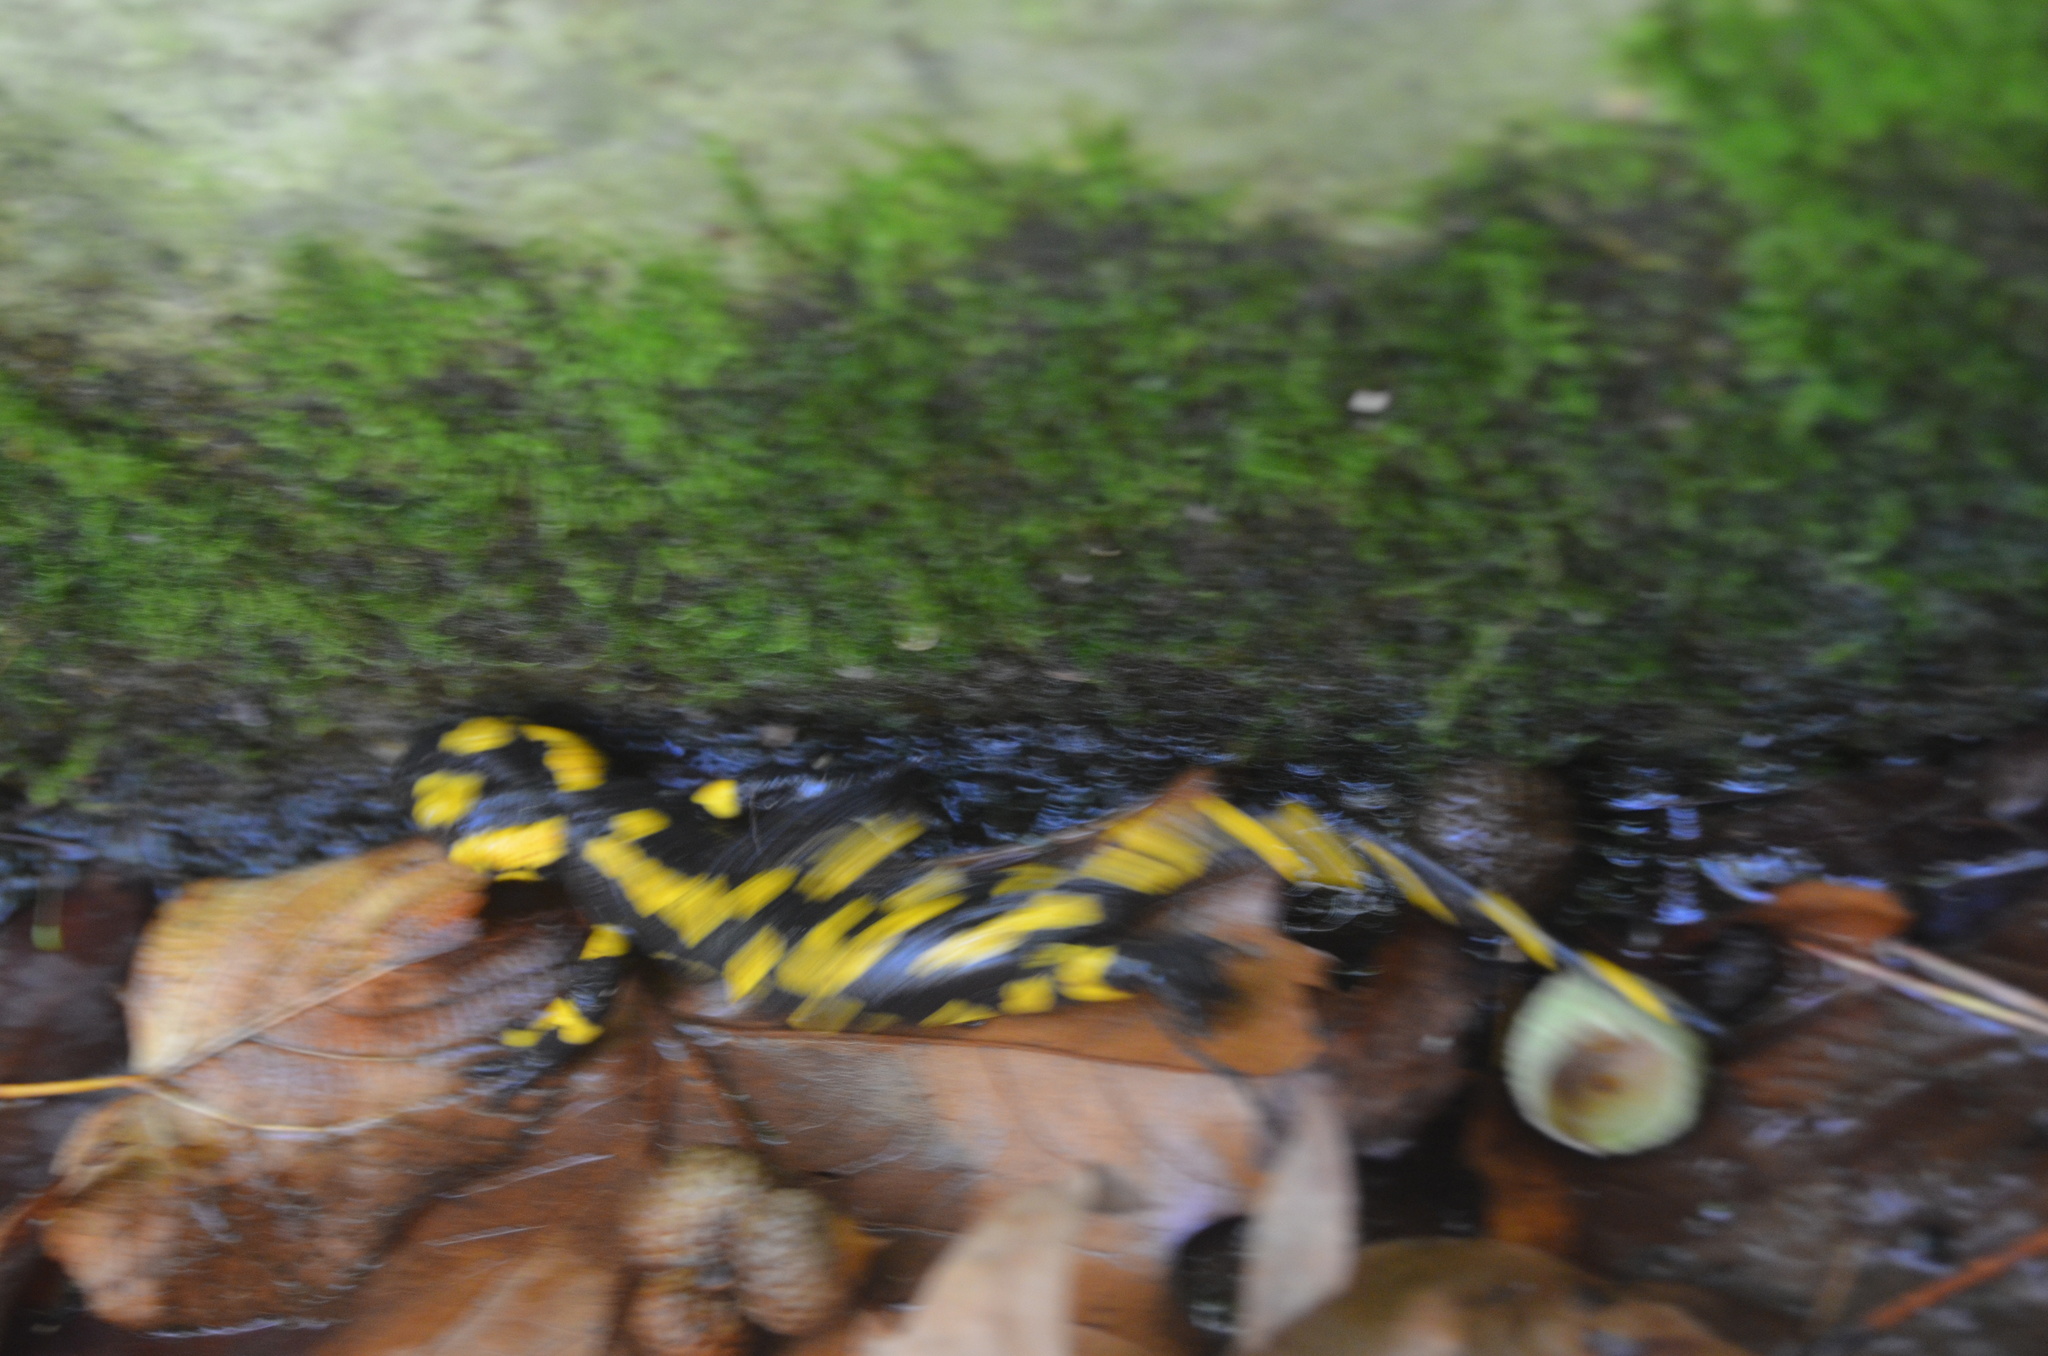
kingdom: Animalia
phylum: Chordata
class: Amphibia
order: Caudata
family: Salamandridae
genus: Salamandra
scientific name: Salamandra salamandra
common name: Fire salamander
